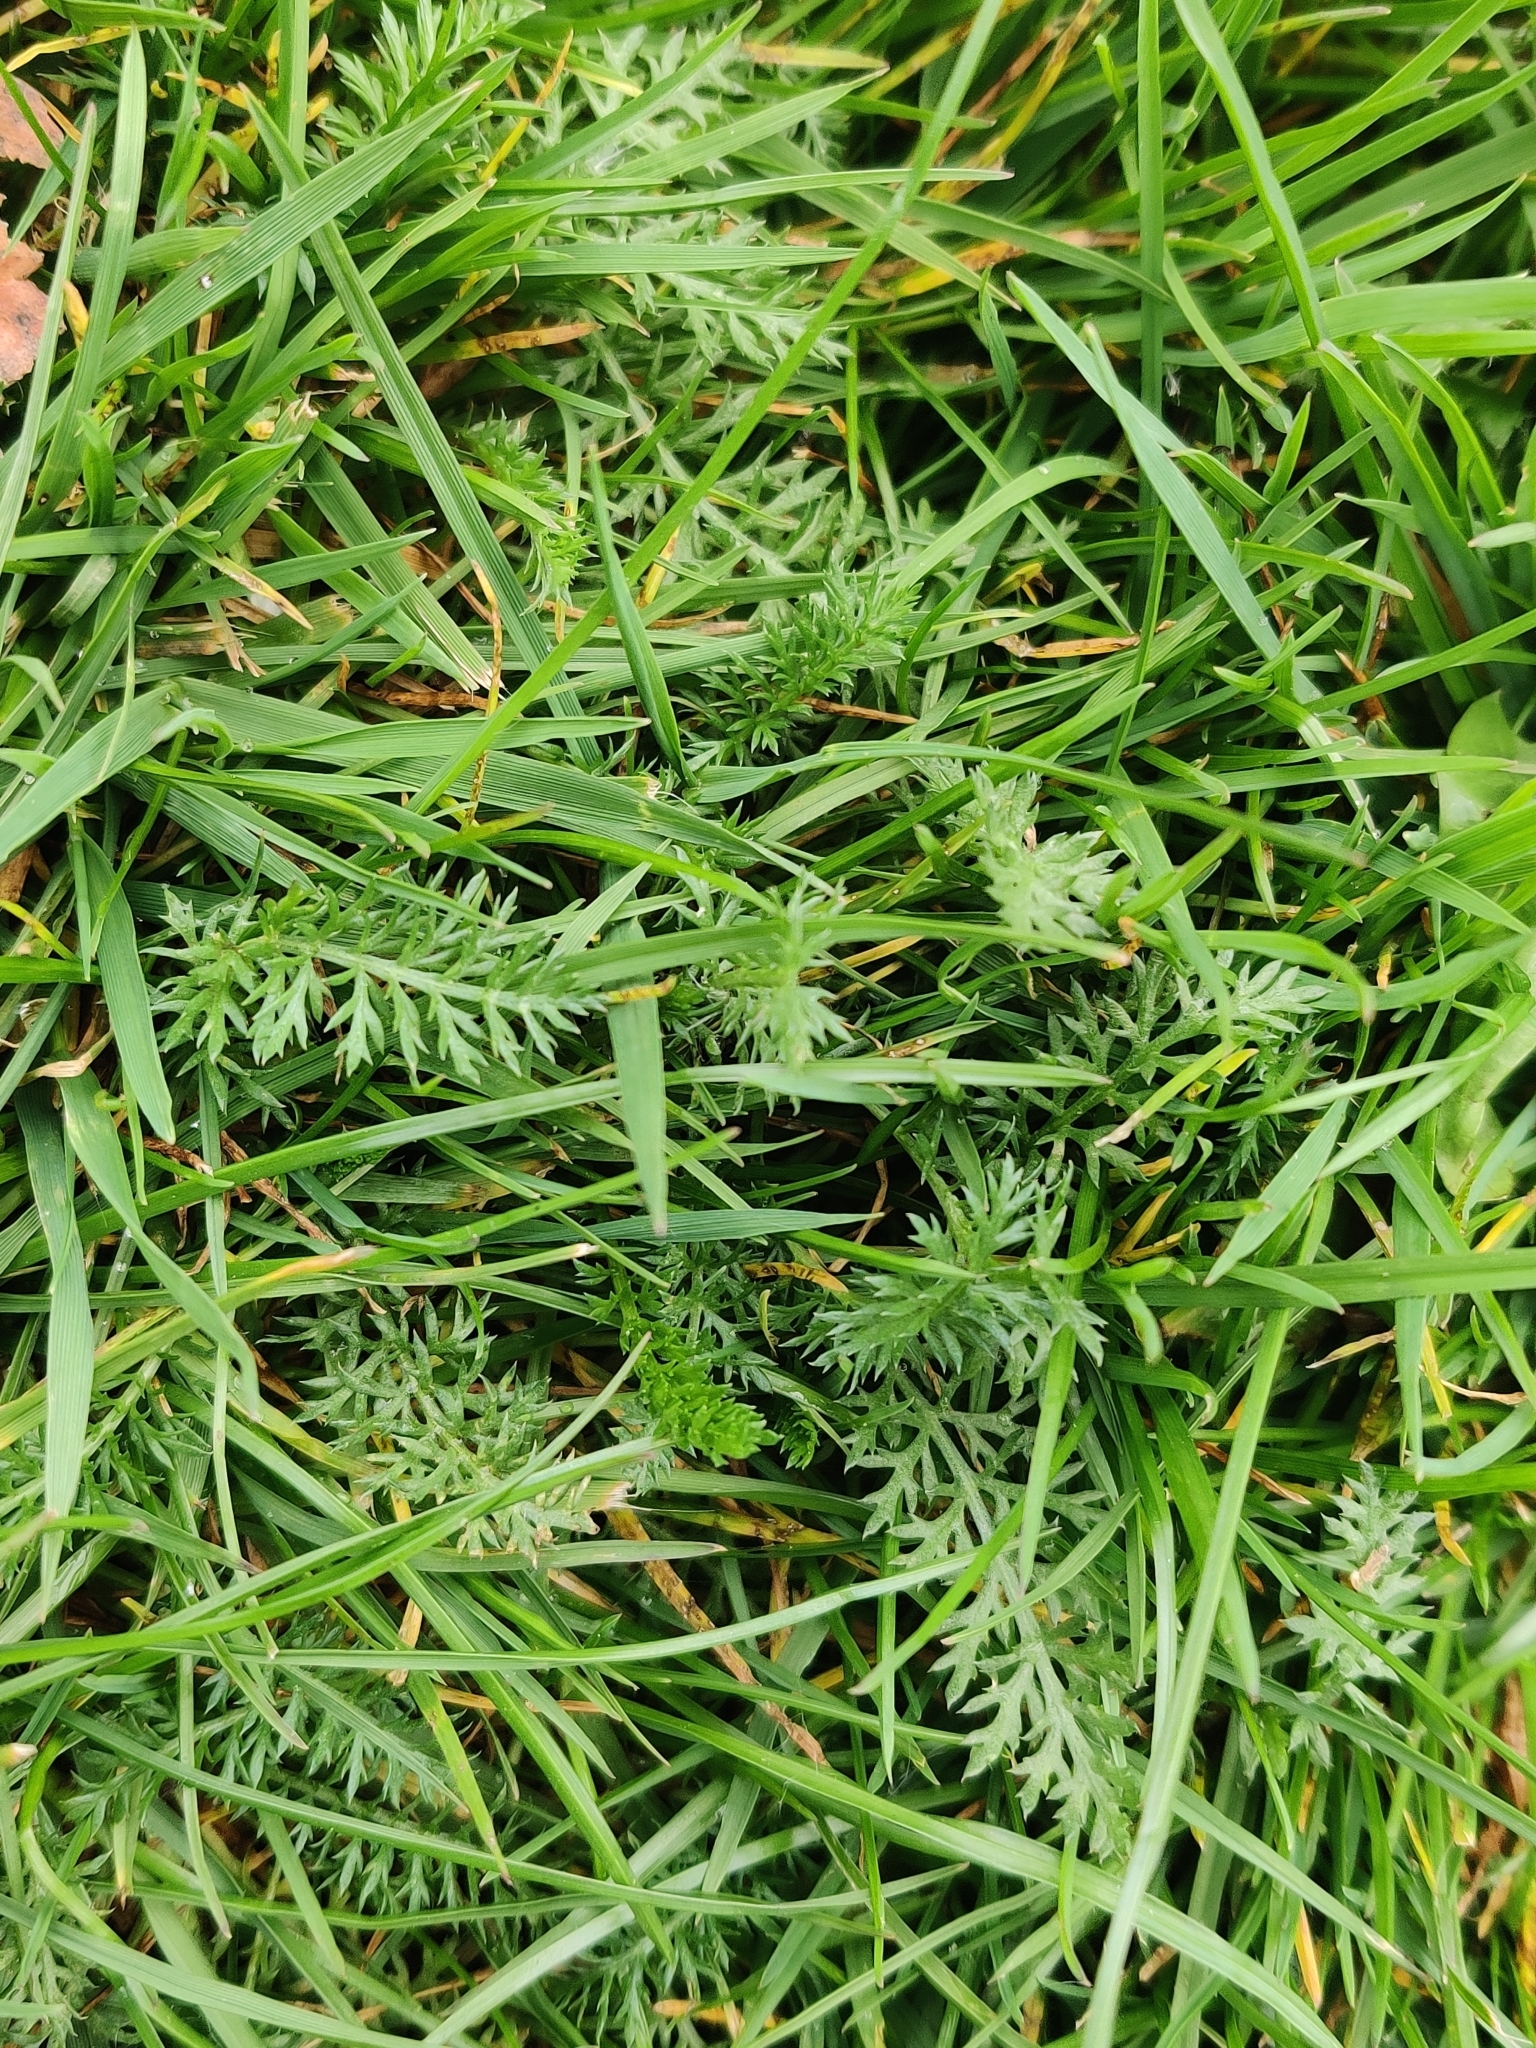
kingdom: Plantae
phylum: Tracheophyta
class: Magnoliopsida
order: Asterales
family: Asteraceae
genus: Achillea
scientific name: Achillea millefolium
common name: Yarrow
